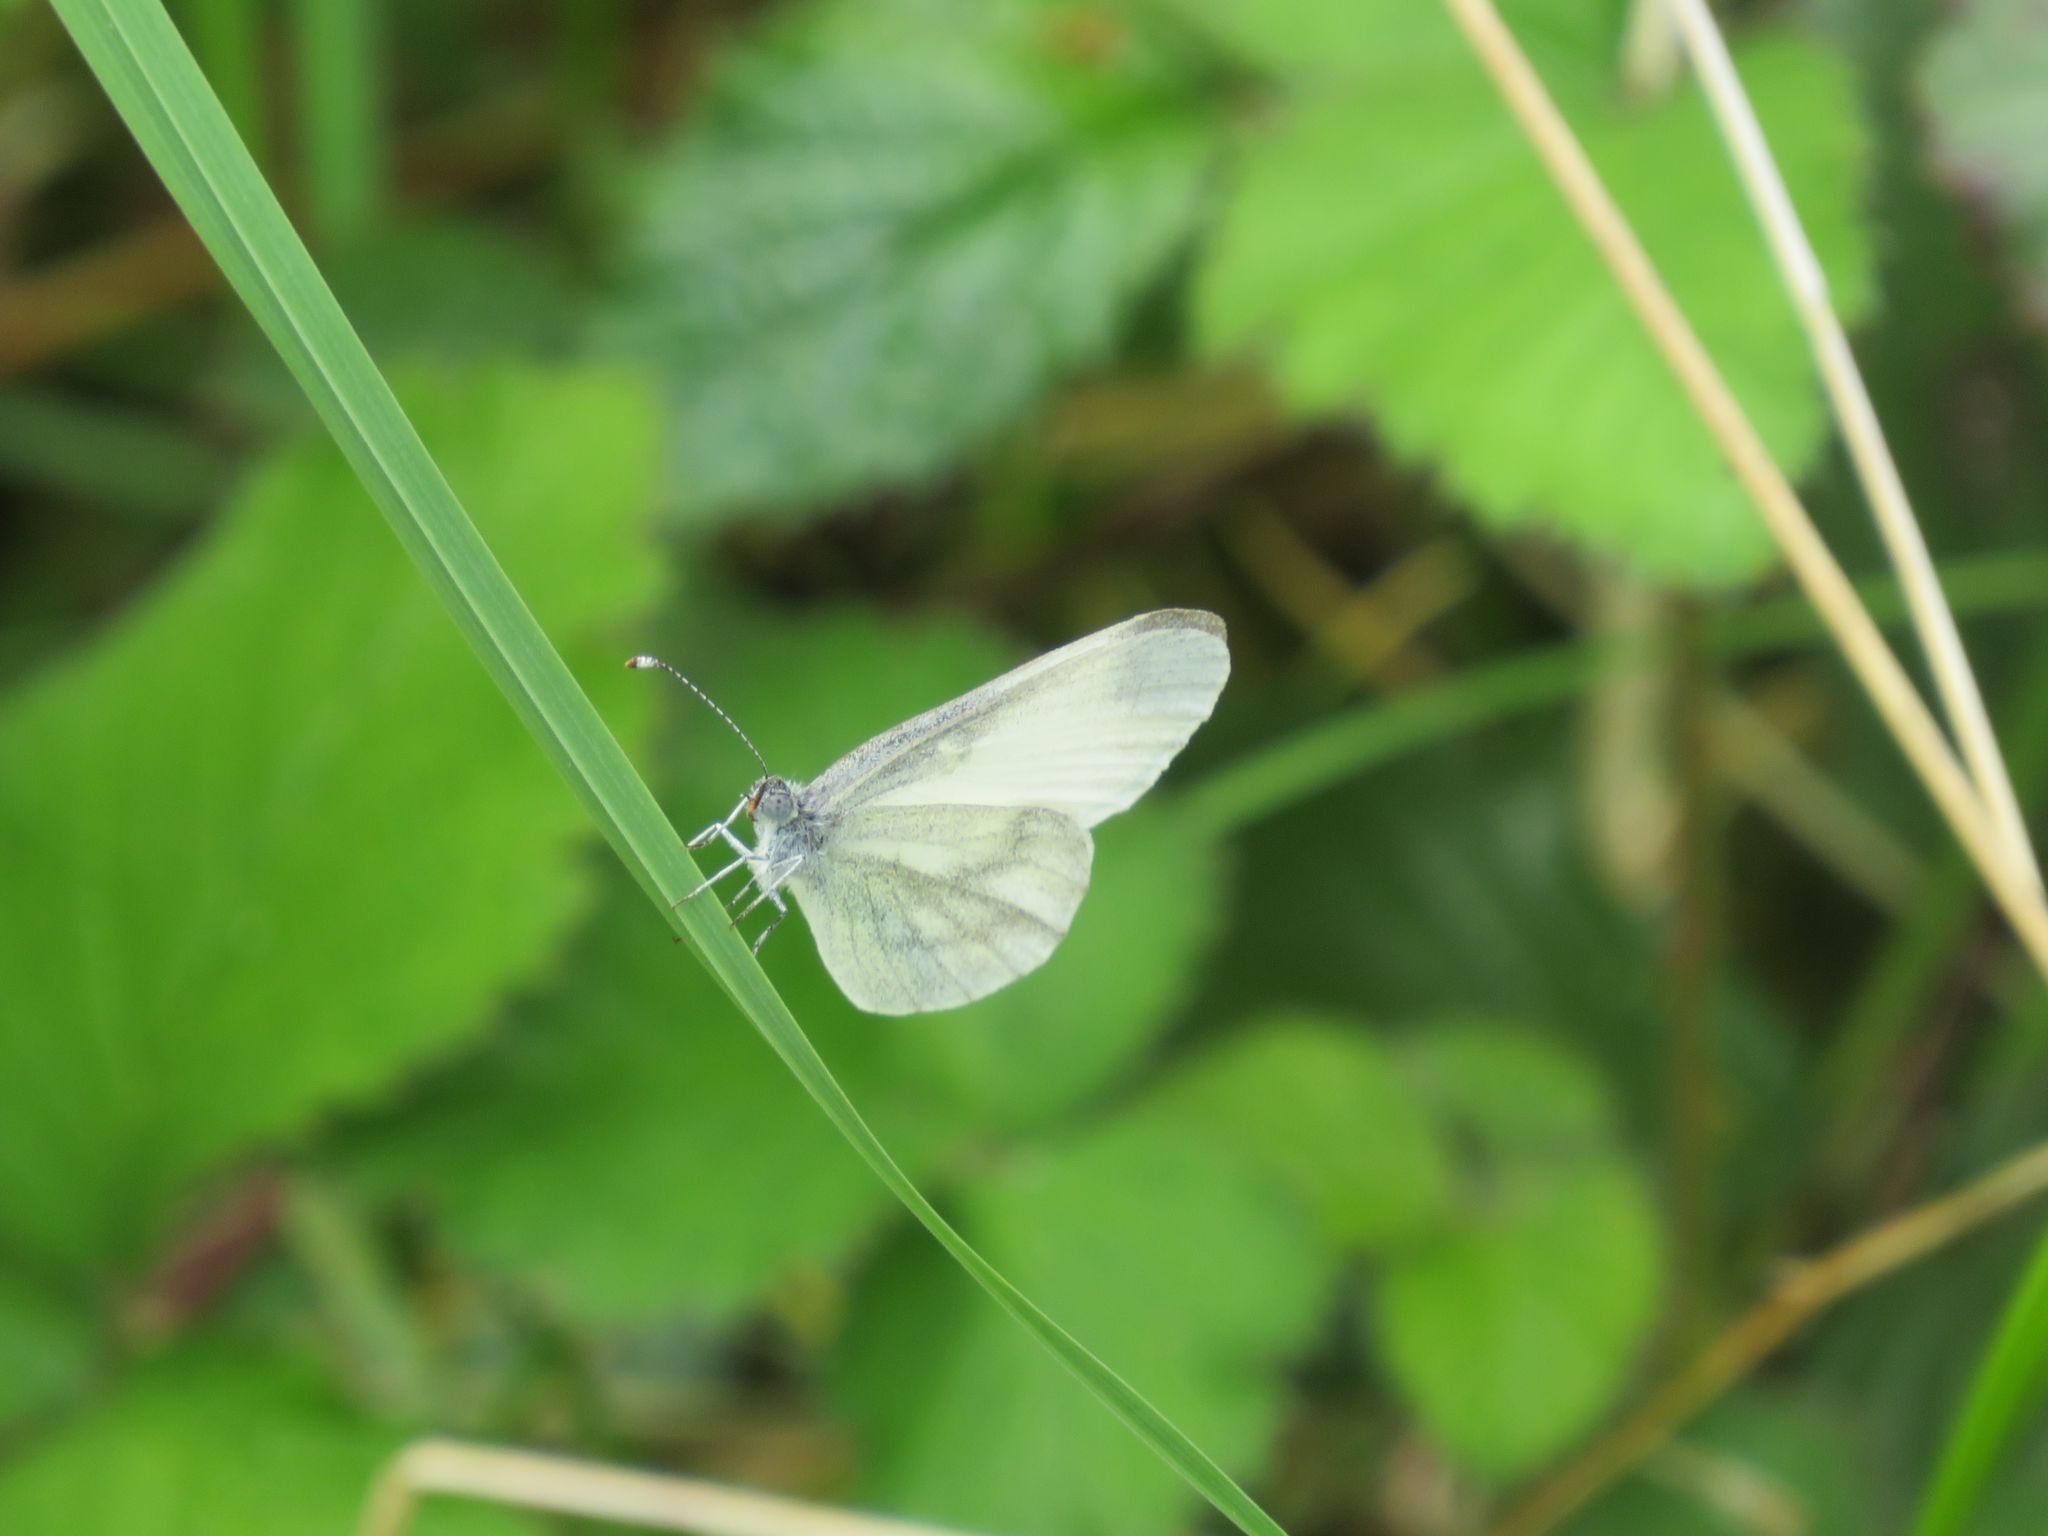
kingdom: Animalia
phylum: Arthropoda
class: Insecta
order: Lepidoptera
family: Pieridae
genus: Leptidea
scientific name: Leptidea sinapis
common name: Wood white
